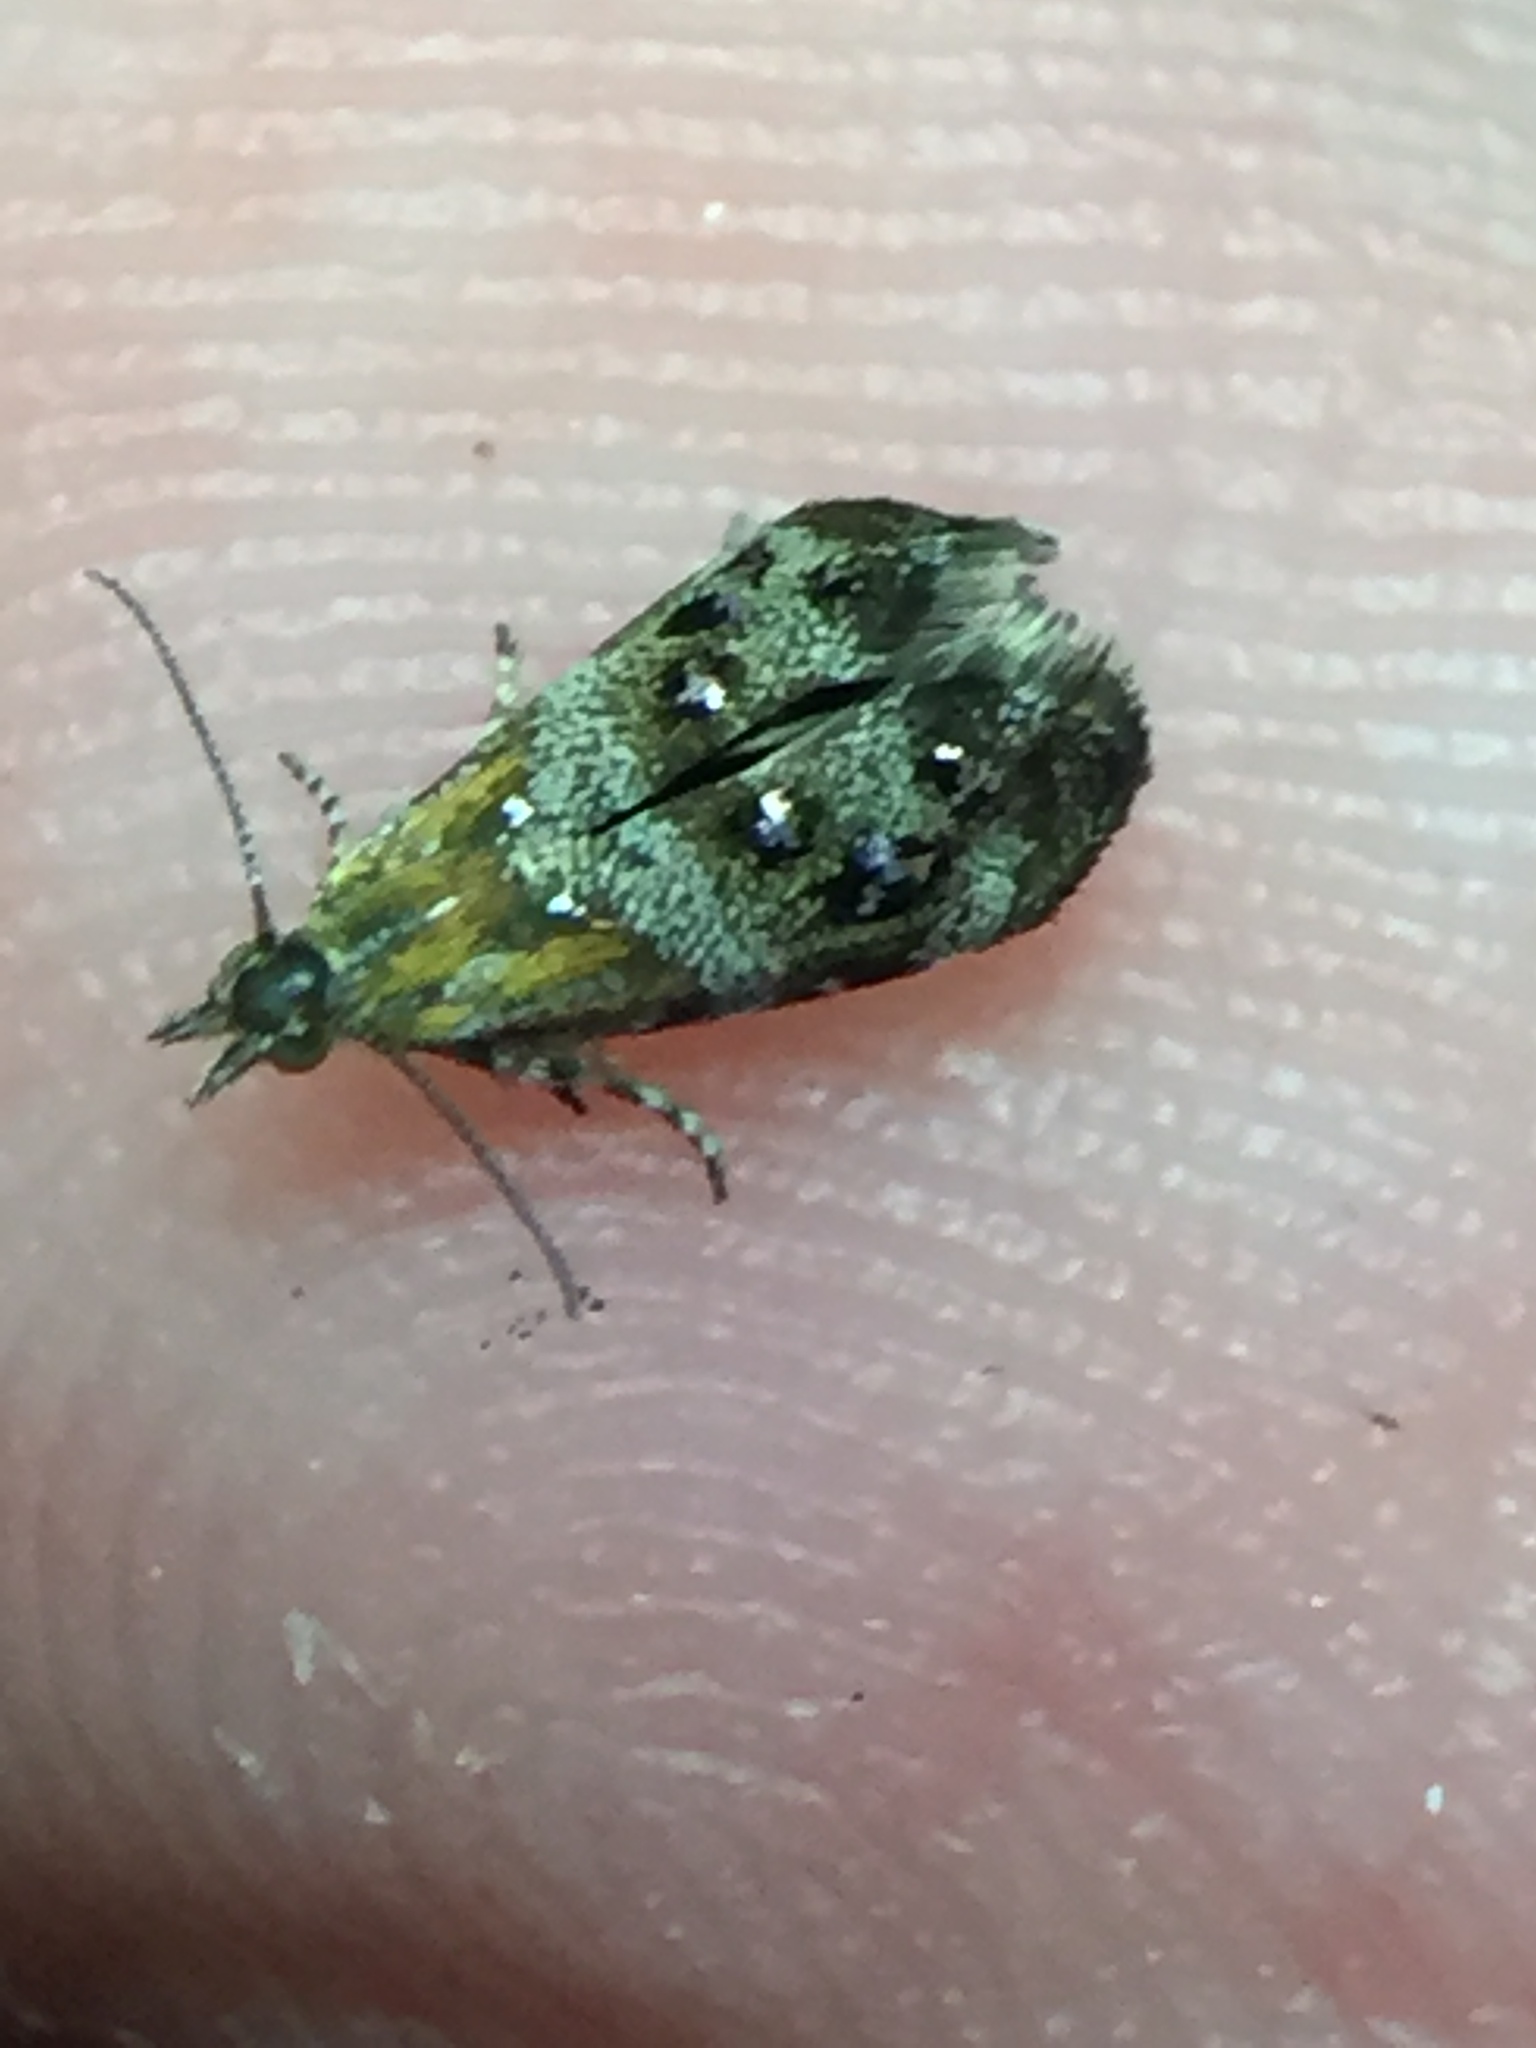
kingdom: Animalia
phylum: Arthropoda
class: Insecta
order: Lepidoptera
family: Choreutidae
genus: Tebenna
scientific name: Tebenna micalis
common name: Vagrant twitcher
